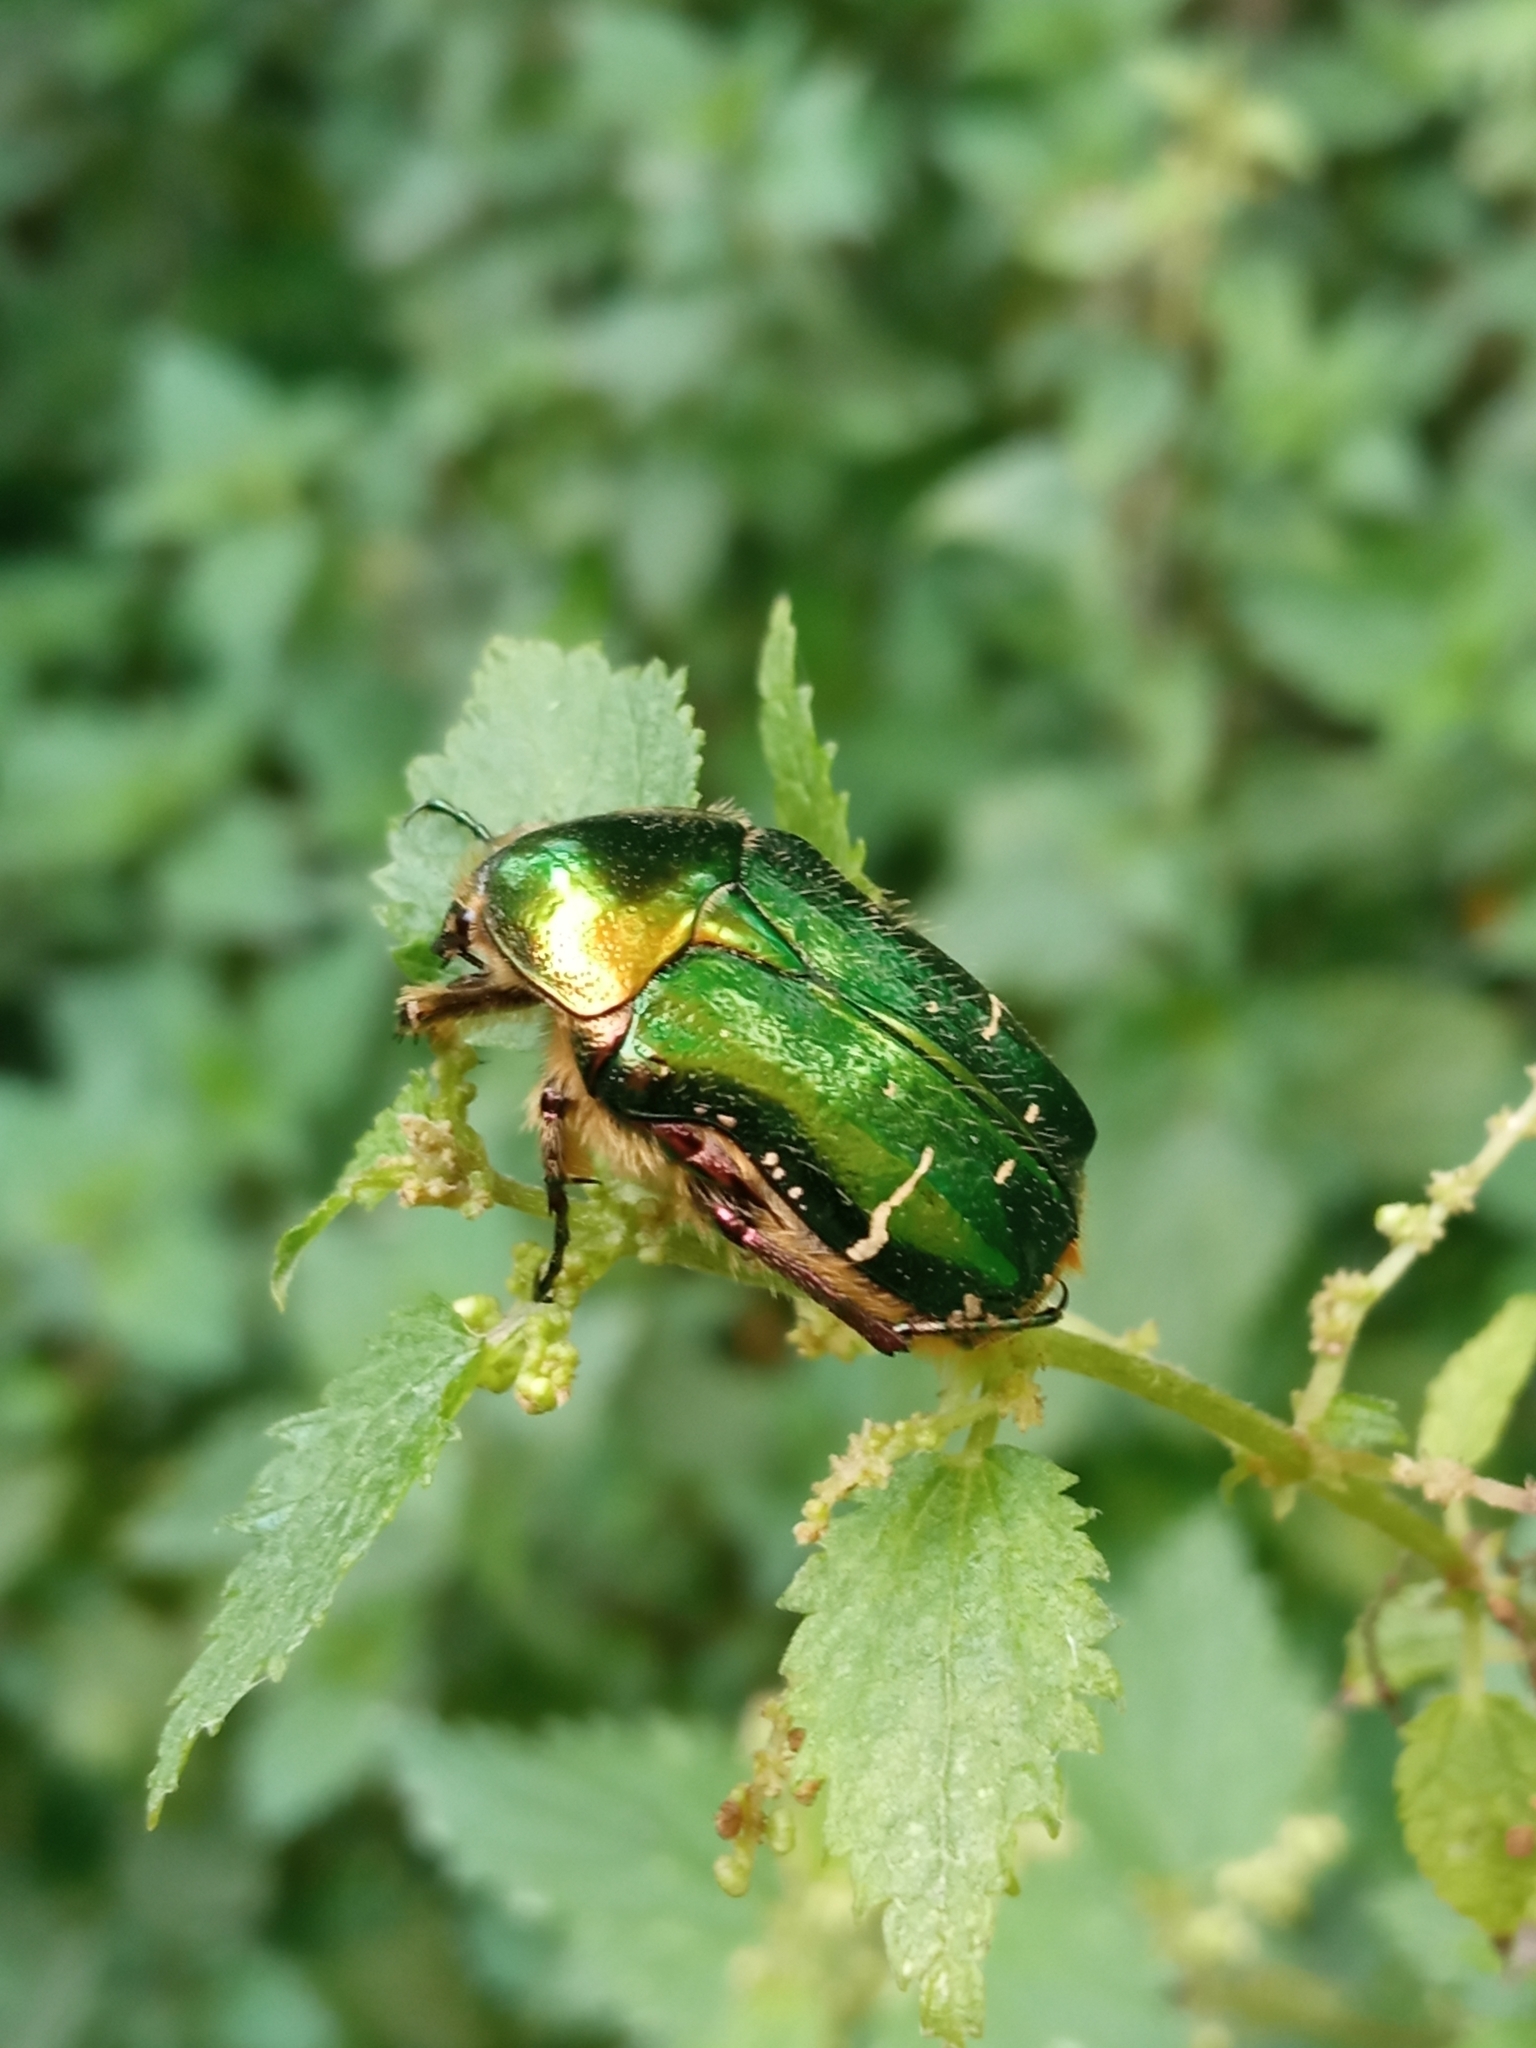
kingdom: Animalia
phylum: Arthropoda
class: Insecta
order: Coleoptera
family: Scarabaeidae
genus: Cetonia
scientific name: Cetonia aurata
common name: Rose chafer
